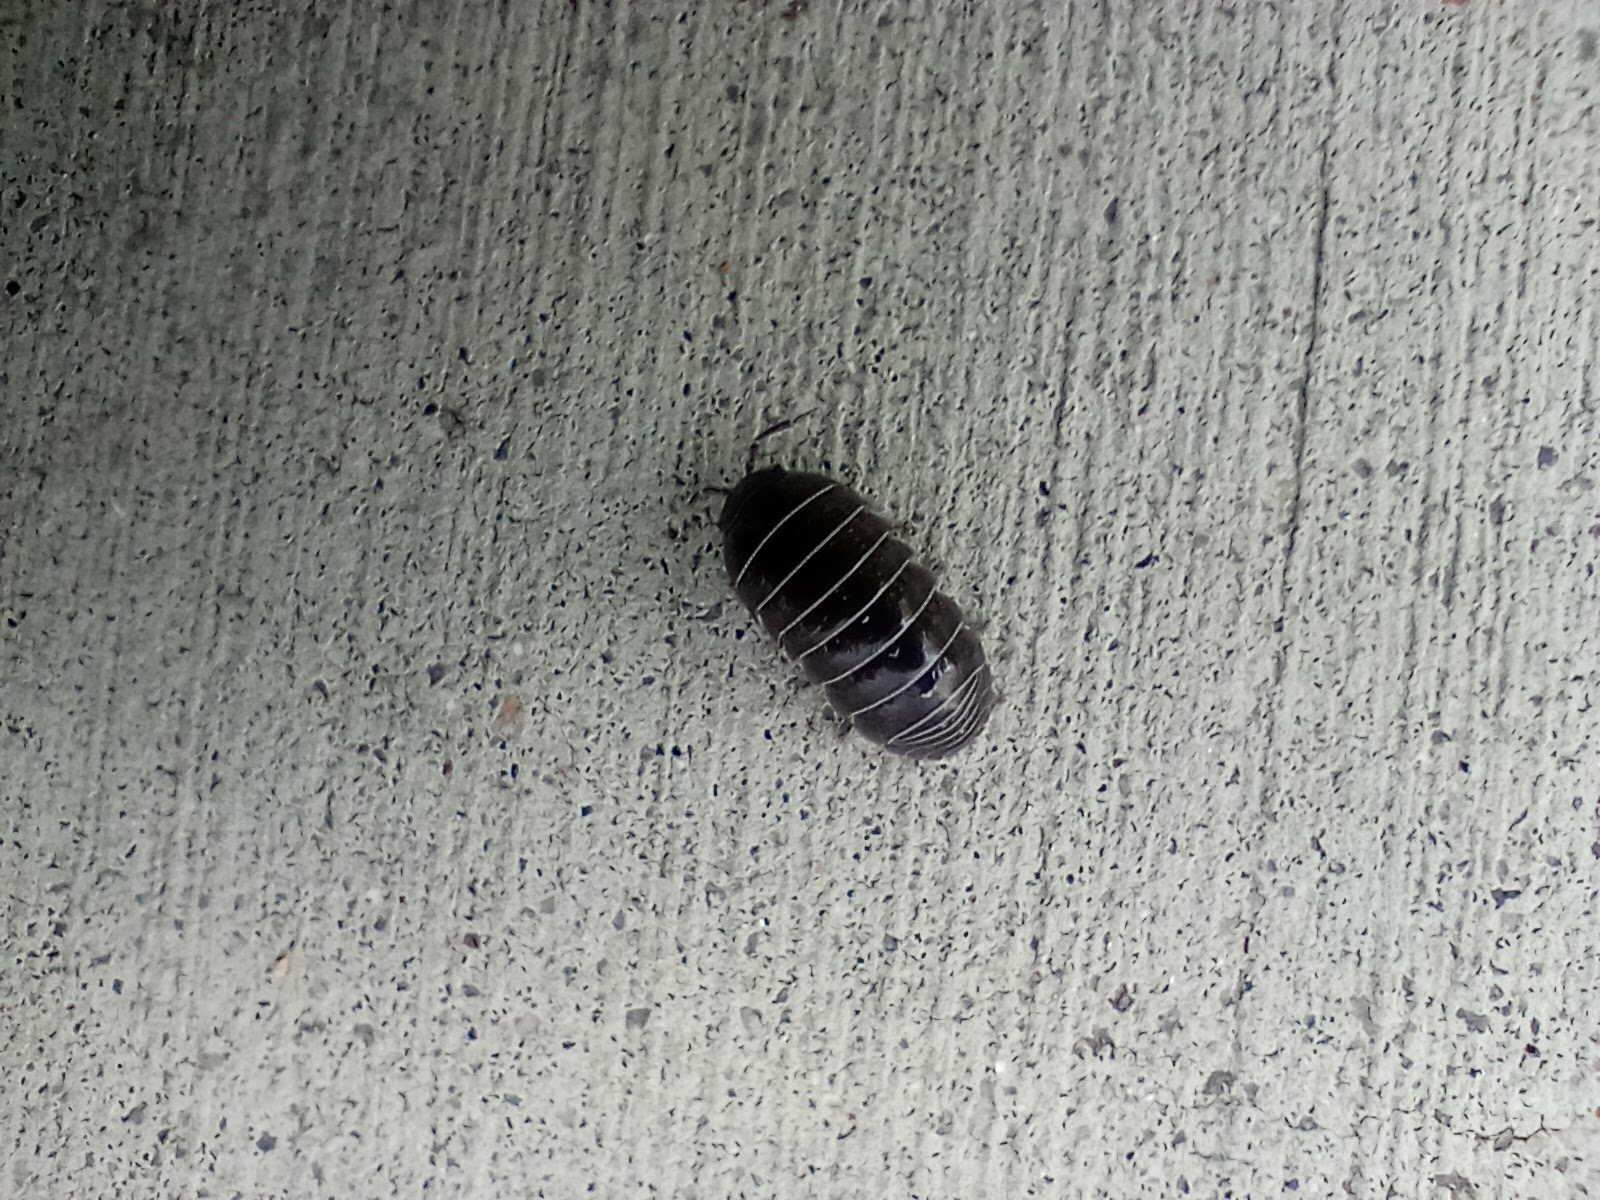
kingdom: Animalia
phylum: Arthropoda
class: Malacostraca
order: Isopoda
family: Armadillidiidae
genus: Armadillidium
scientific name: Armadillidium vulgare
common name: Common pill woodlouse
